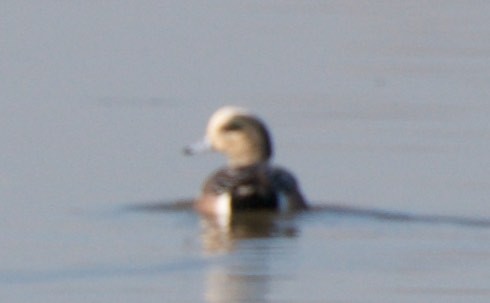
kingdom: Animalia
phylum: Chordata
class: Aves
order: Anseriformes
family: Anatidae
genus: Mareca
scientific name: Mareca americana
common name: American wigeon
